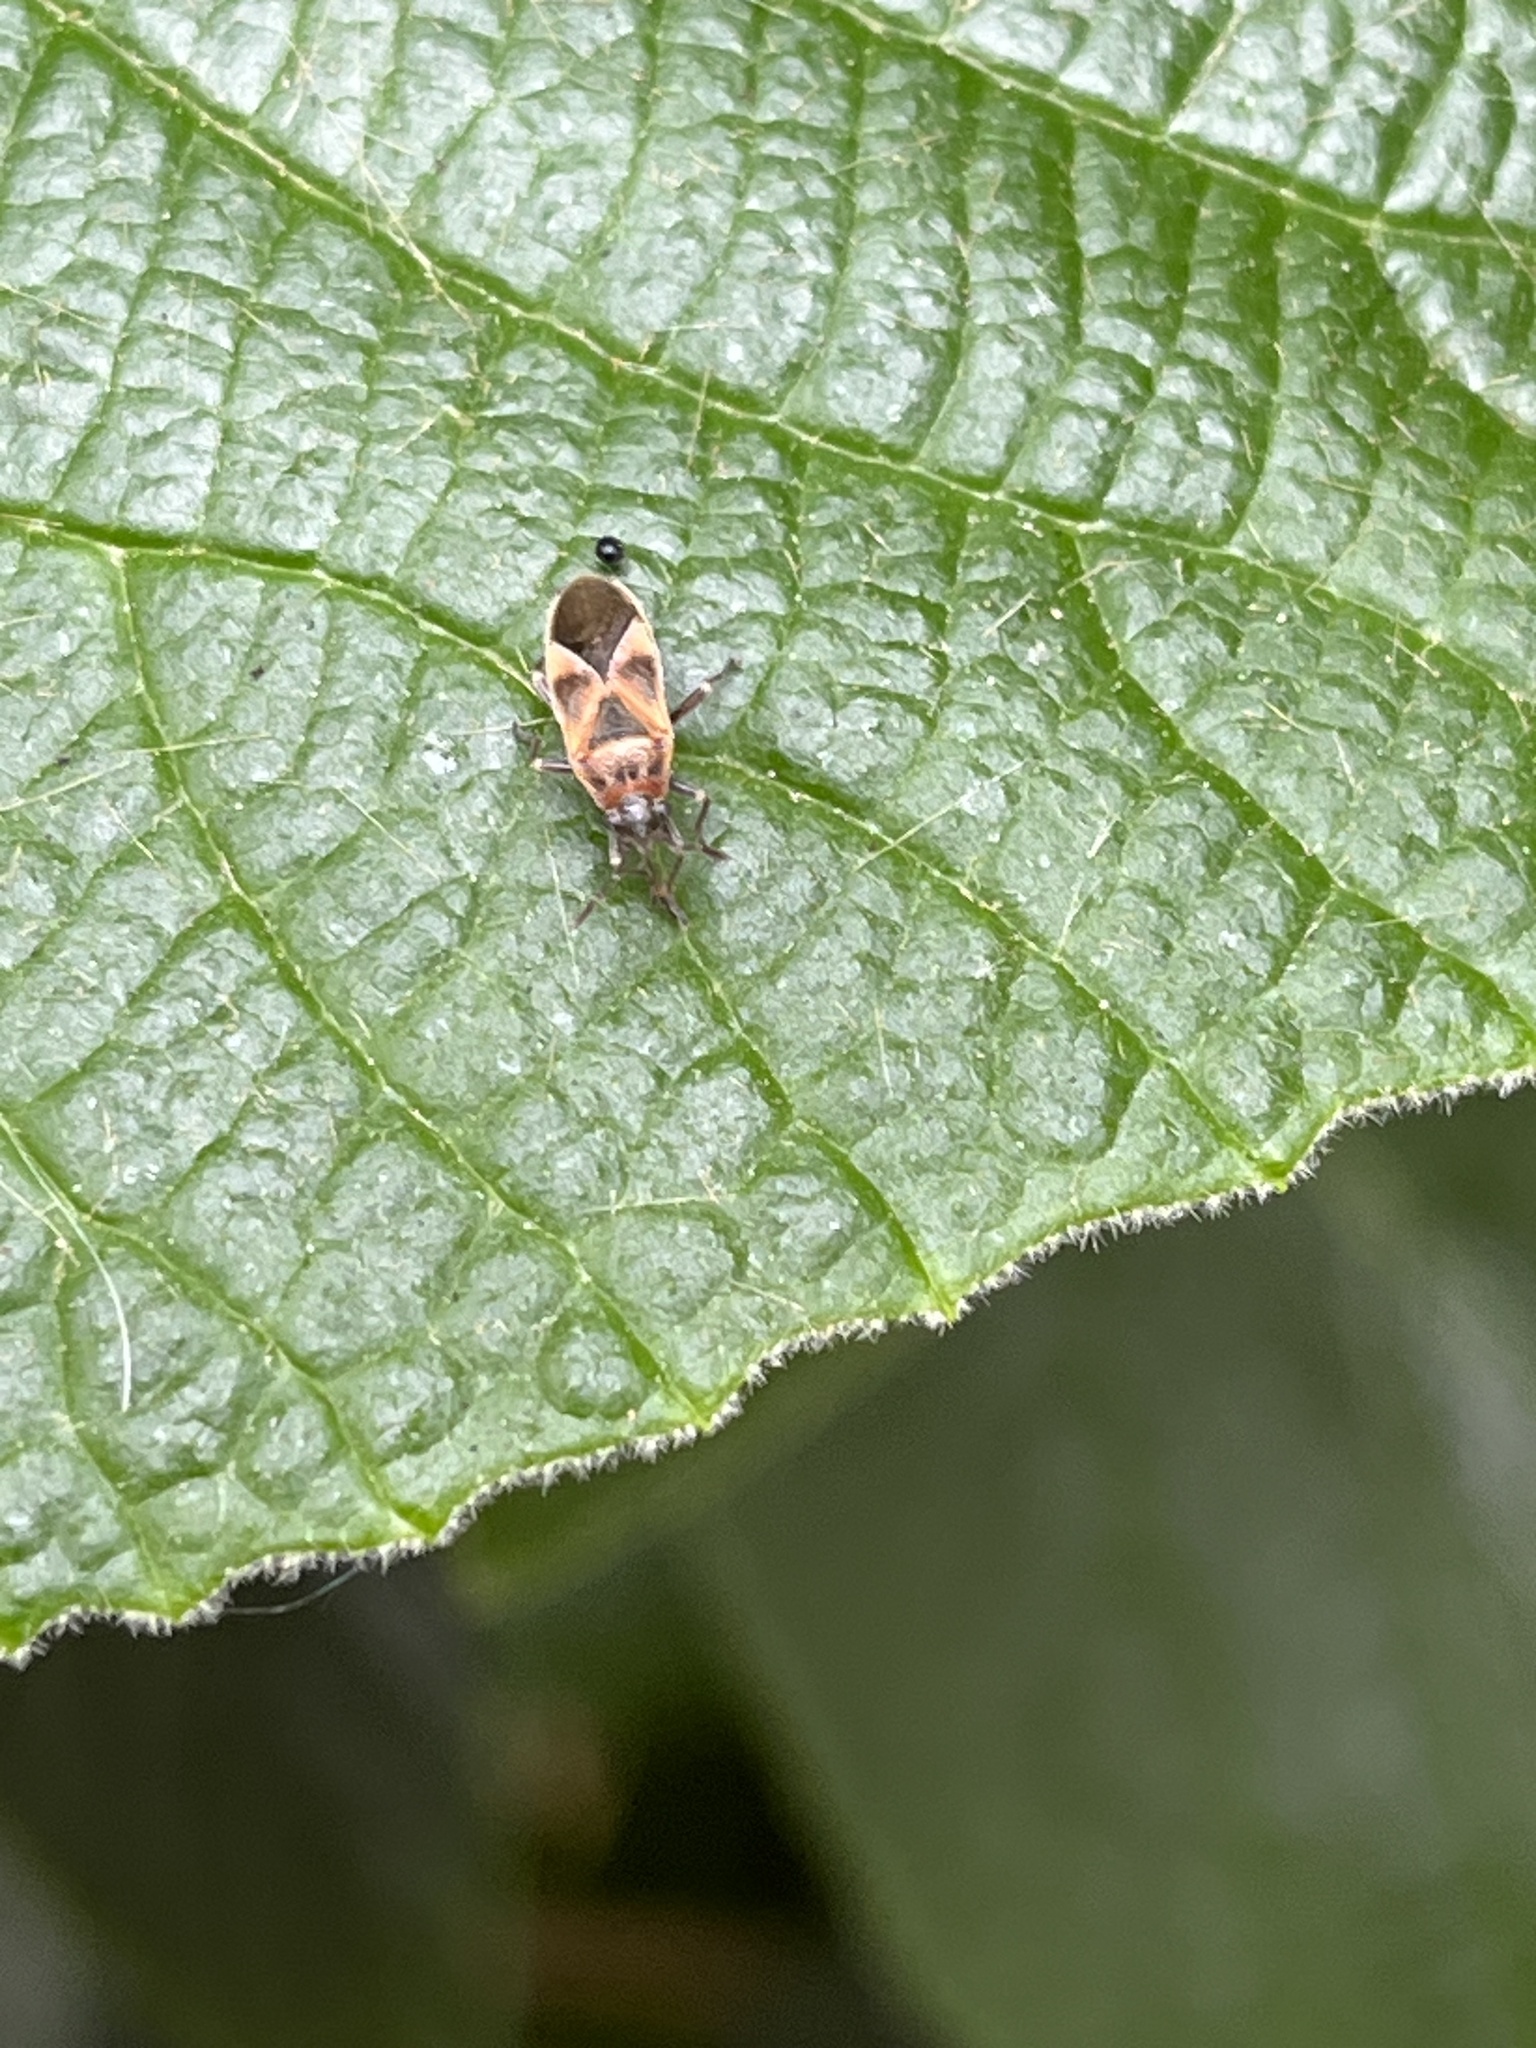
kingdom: Animalia
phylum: Arthropoda
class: Insecta
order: Hemiptera
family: Lygaeidae
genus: Arocatus
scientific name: Arocatus roeselii
